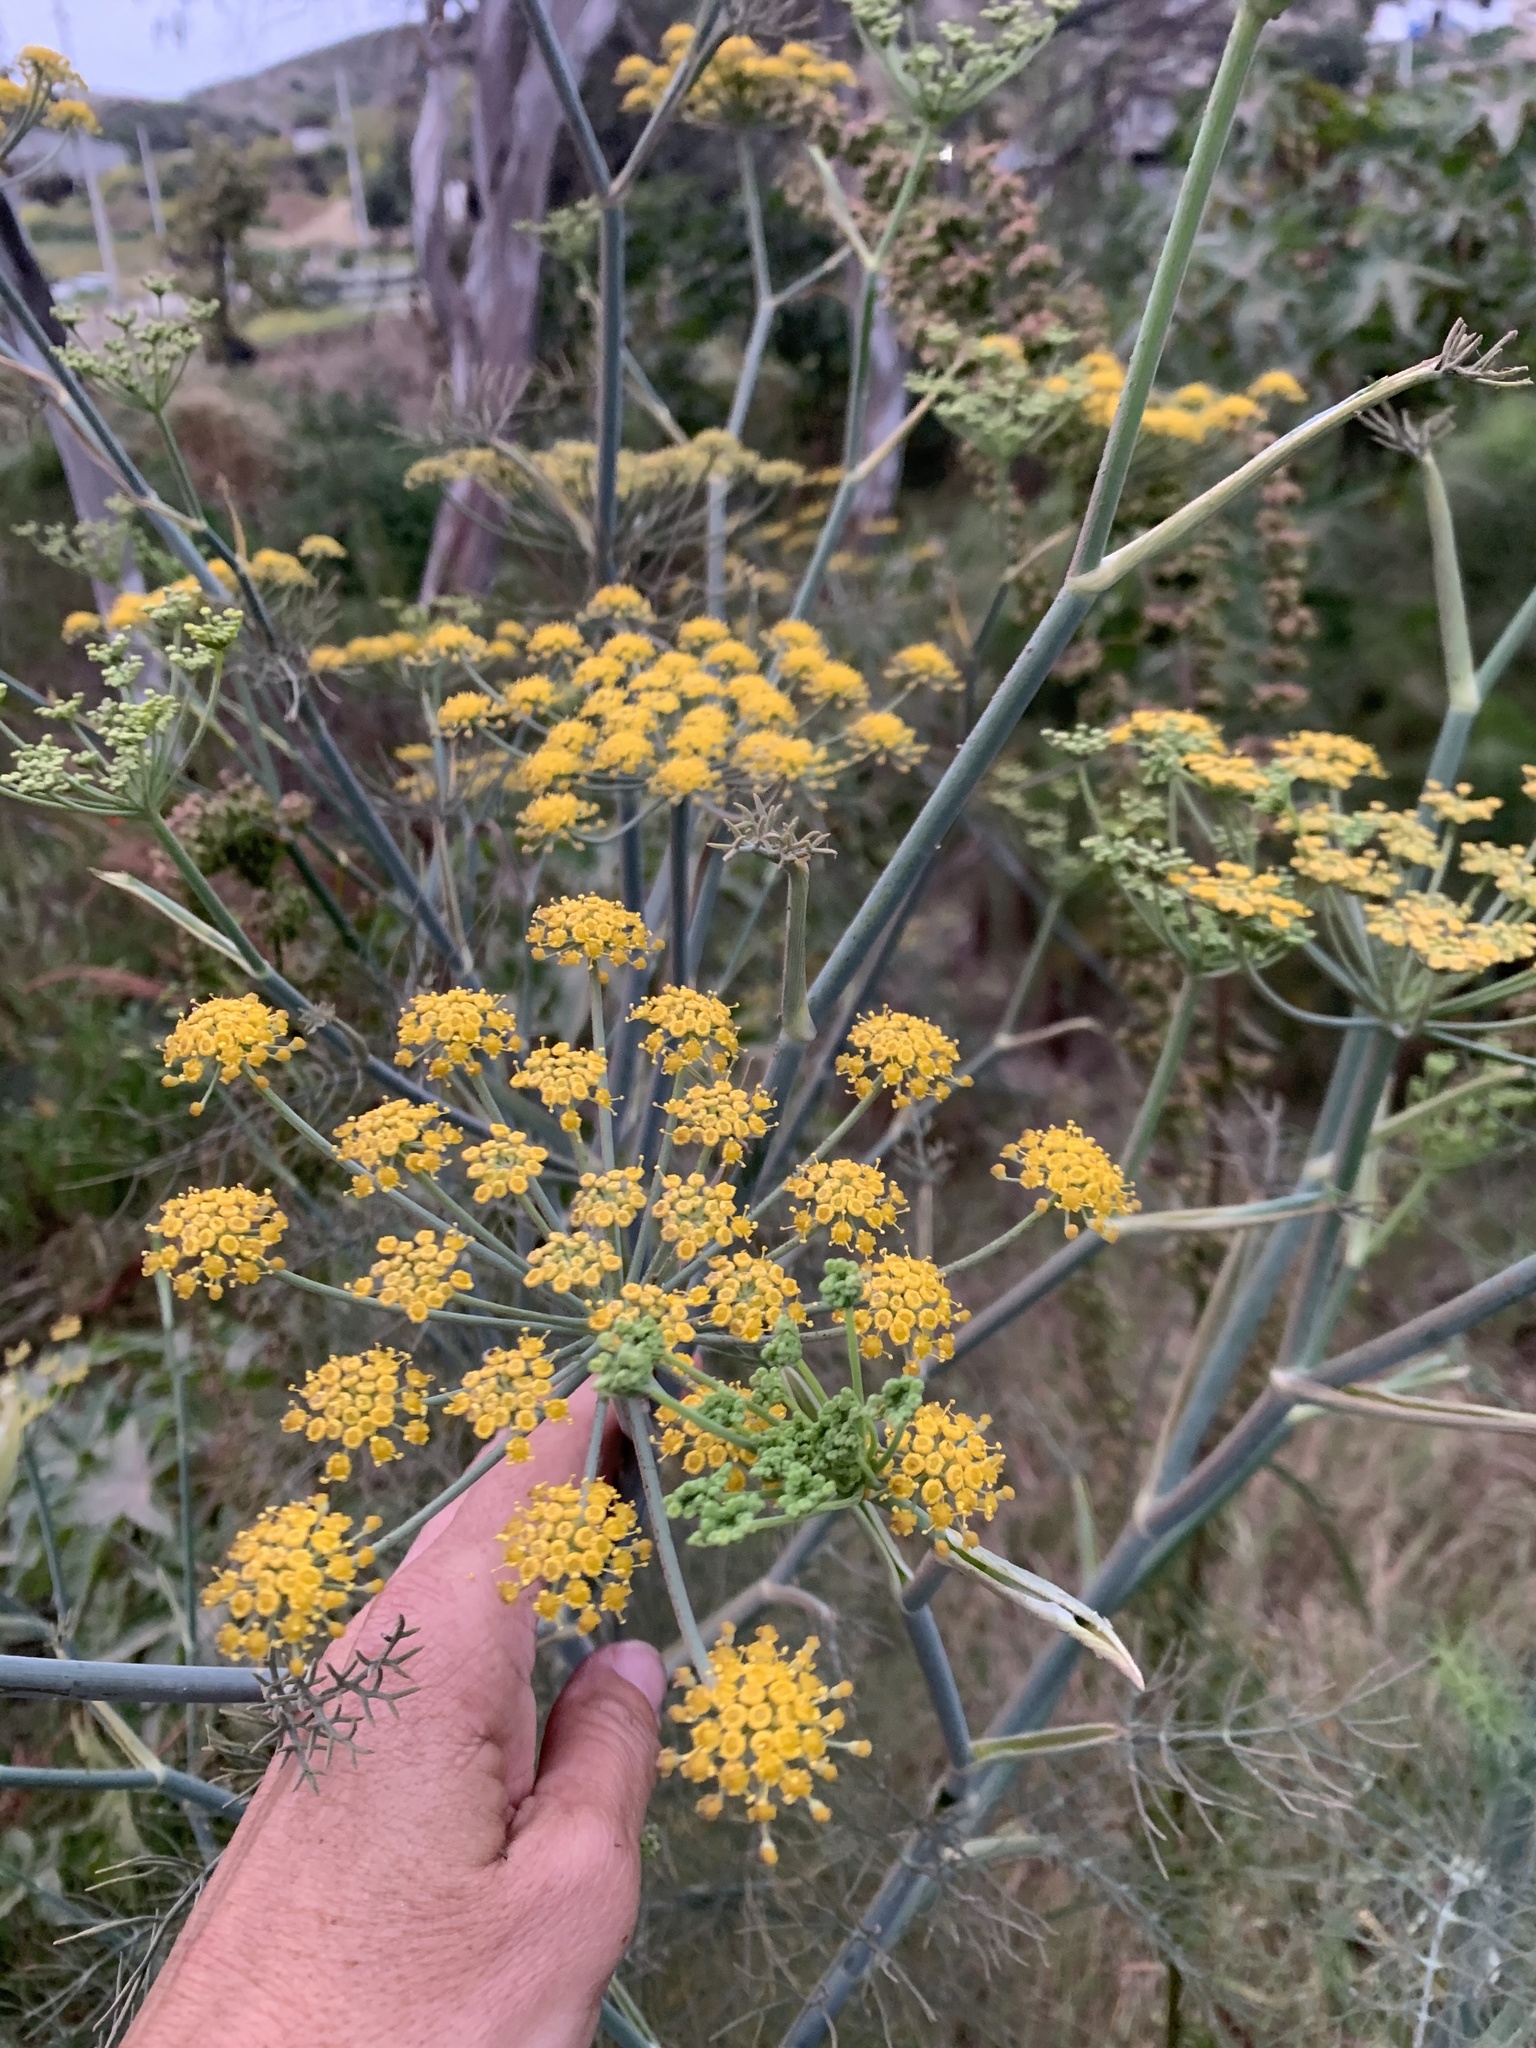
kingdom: Plantae
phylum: Tracheophyta
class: Magnoliopsida
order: Apiales
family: Apiaceae
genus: Foeniculum
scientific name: Foeniculum vulgare
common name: Fennel
